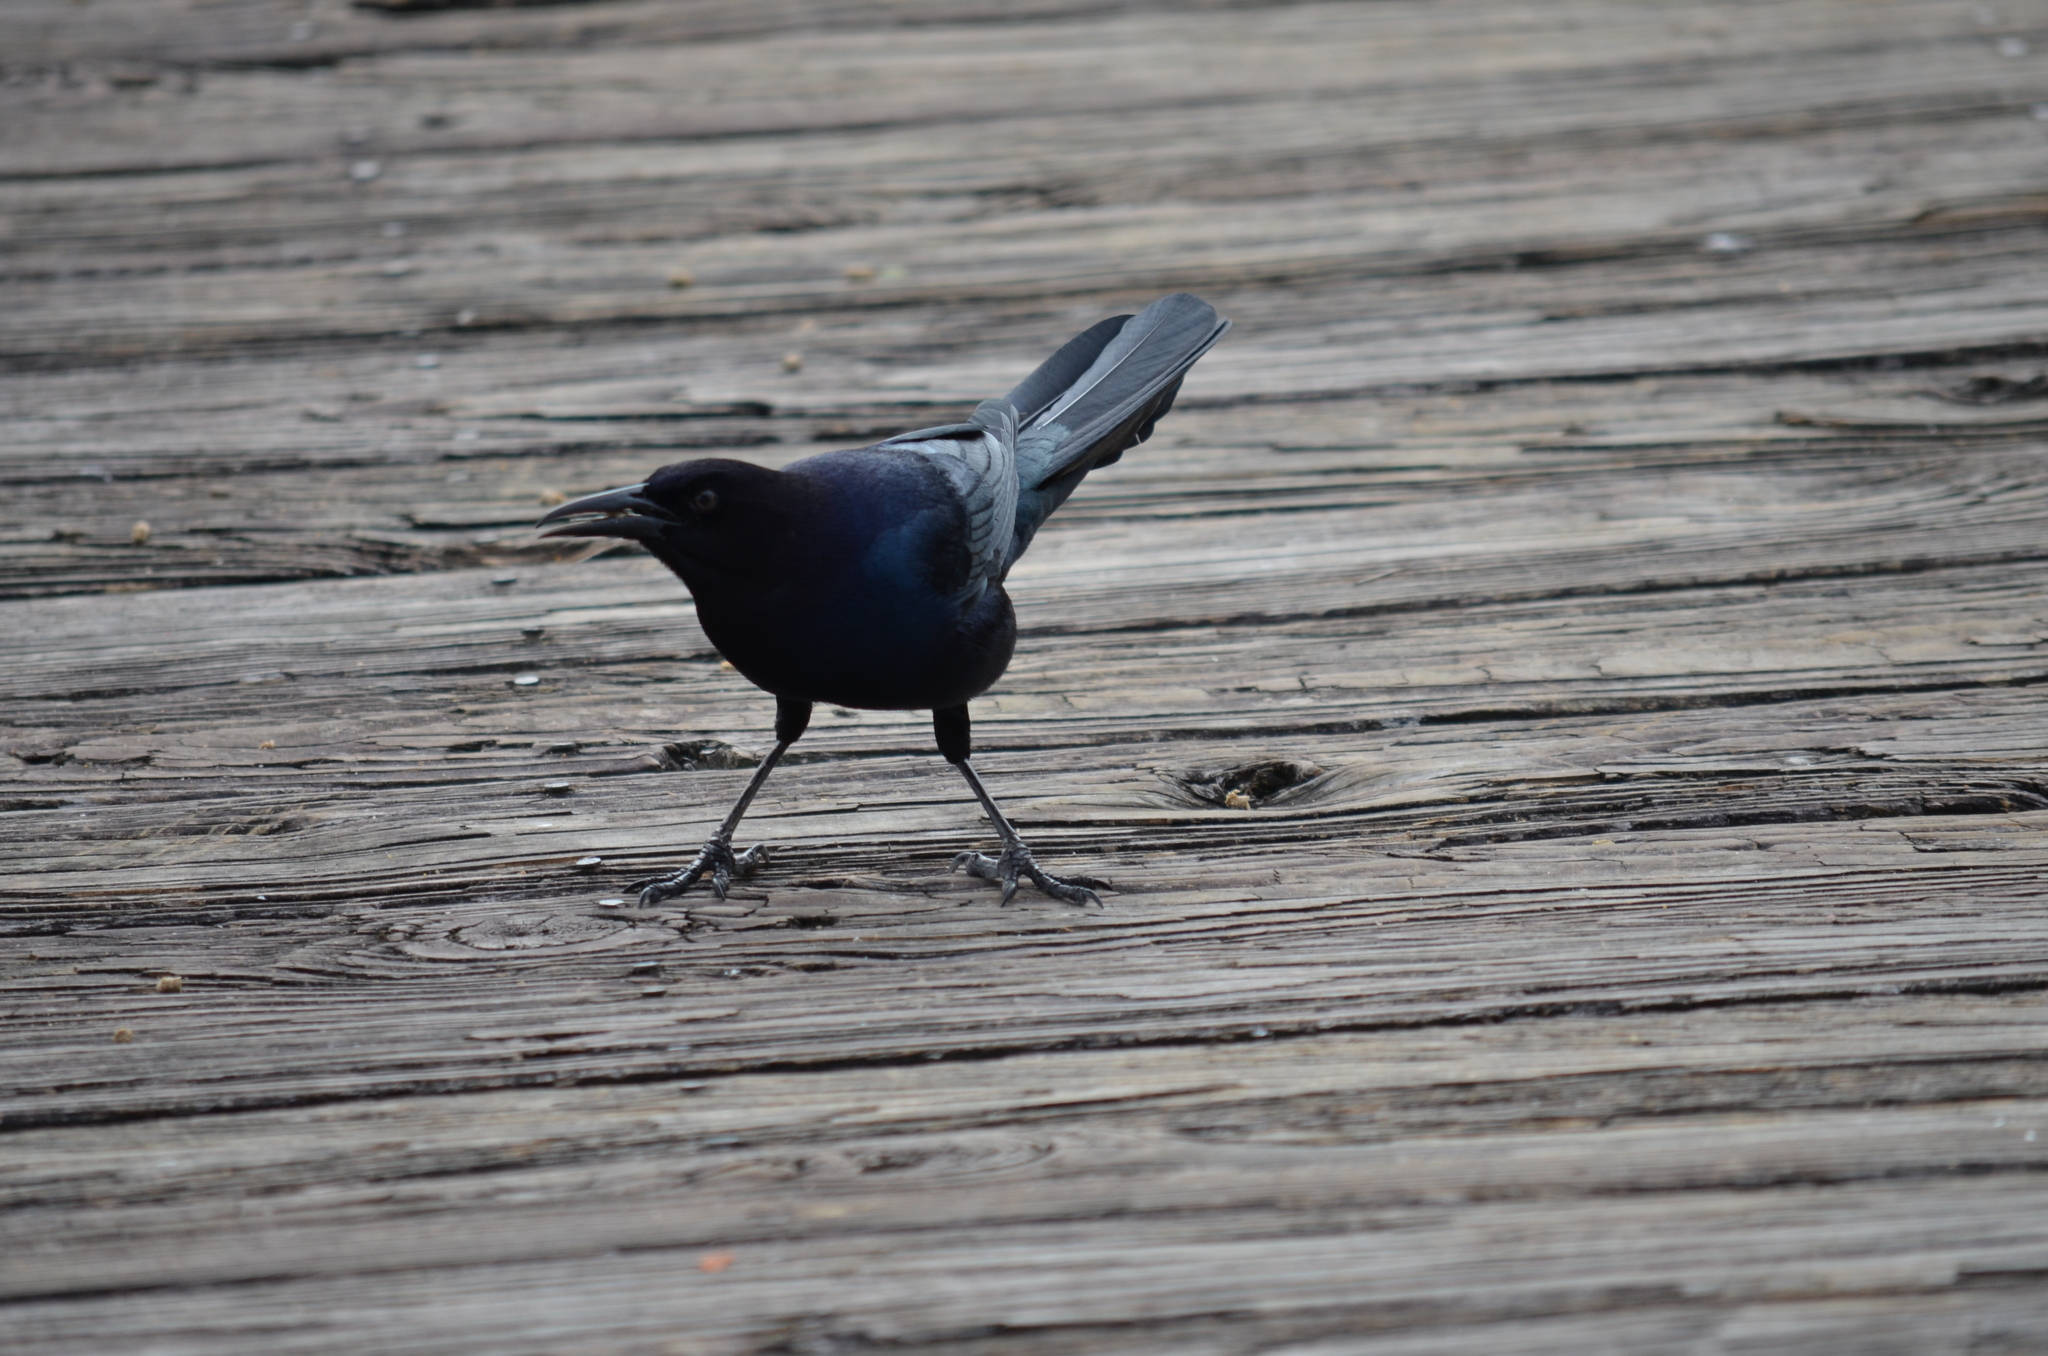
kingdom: Animalia
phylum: Chordata
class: Aves
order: Passeriformes
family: Icteridae
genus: Quiscalus
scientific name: Quiscalus major
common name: Boat-tailed grackle
